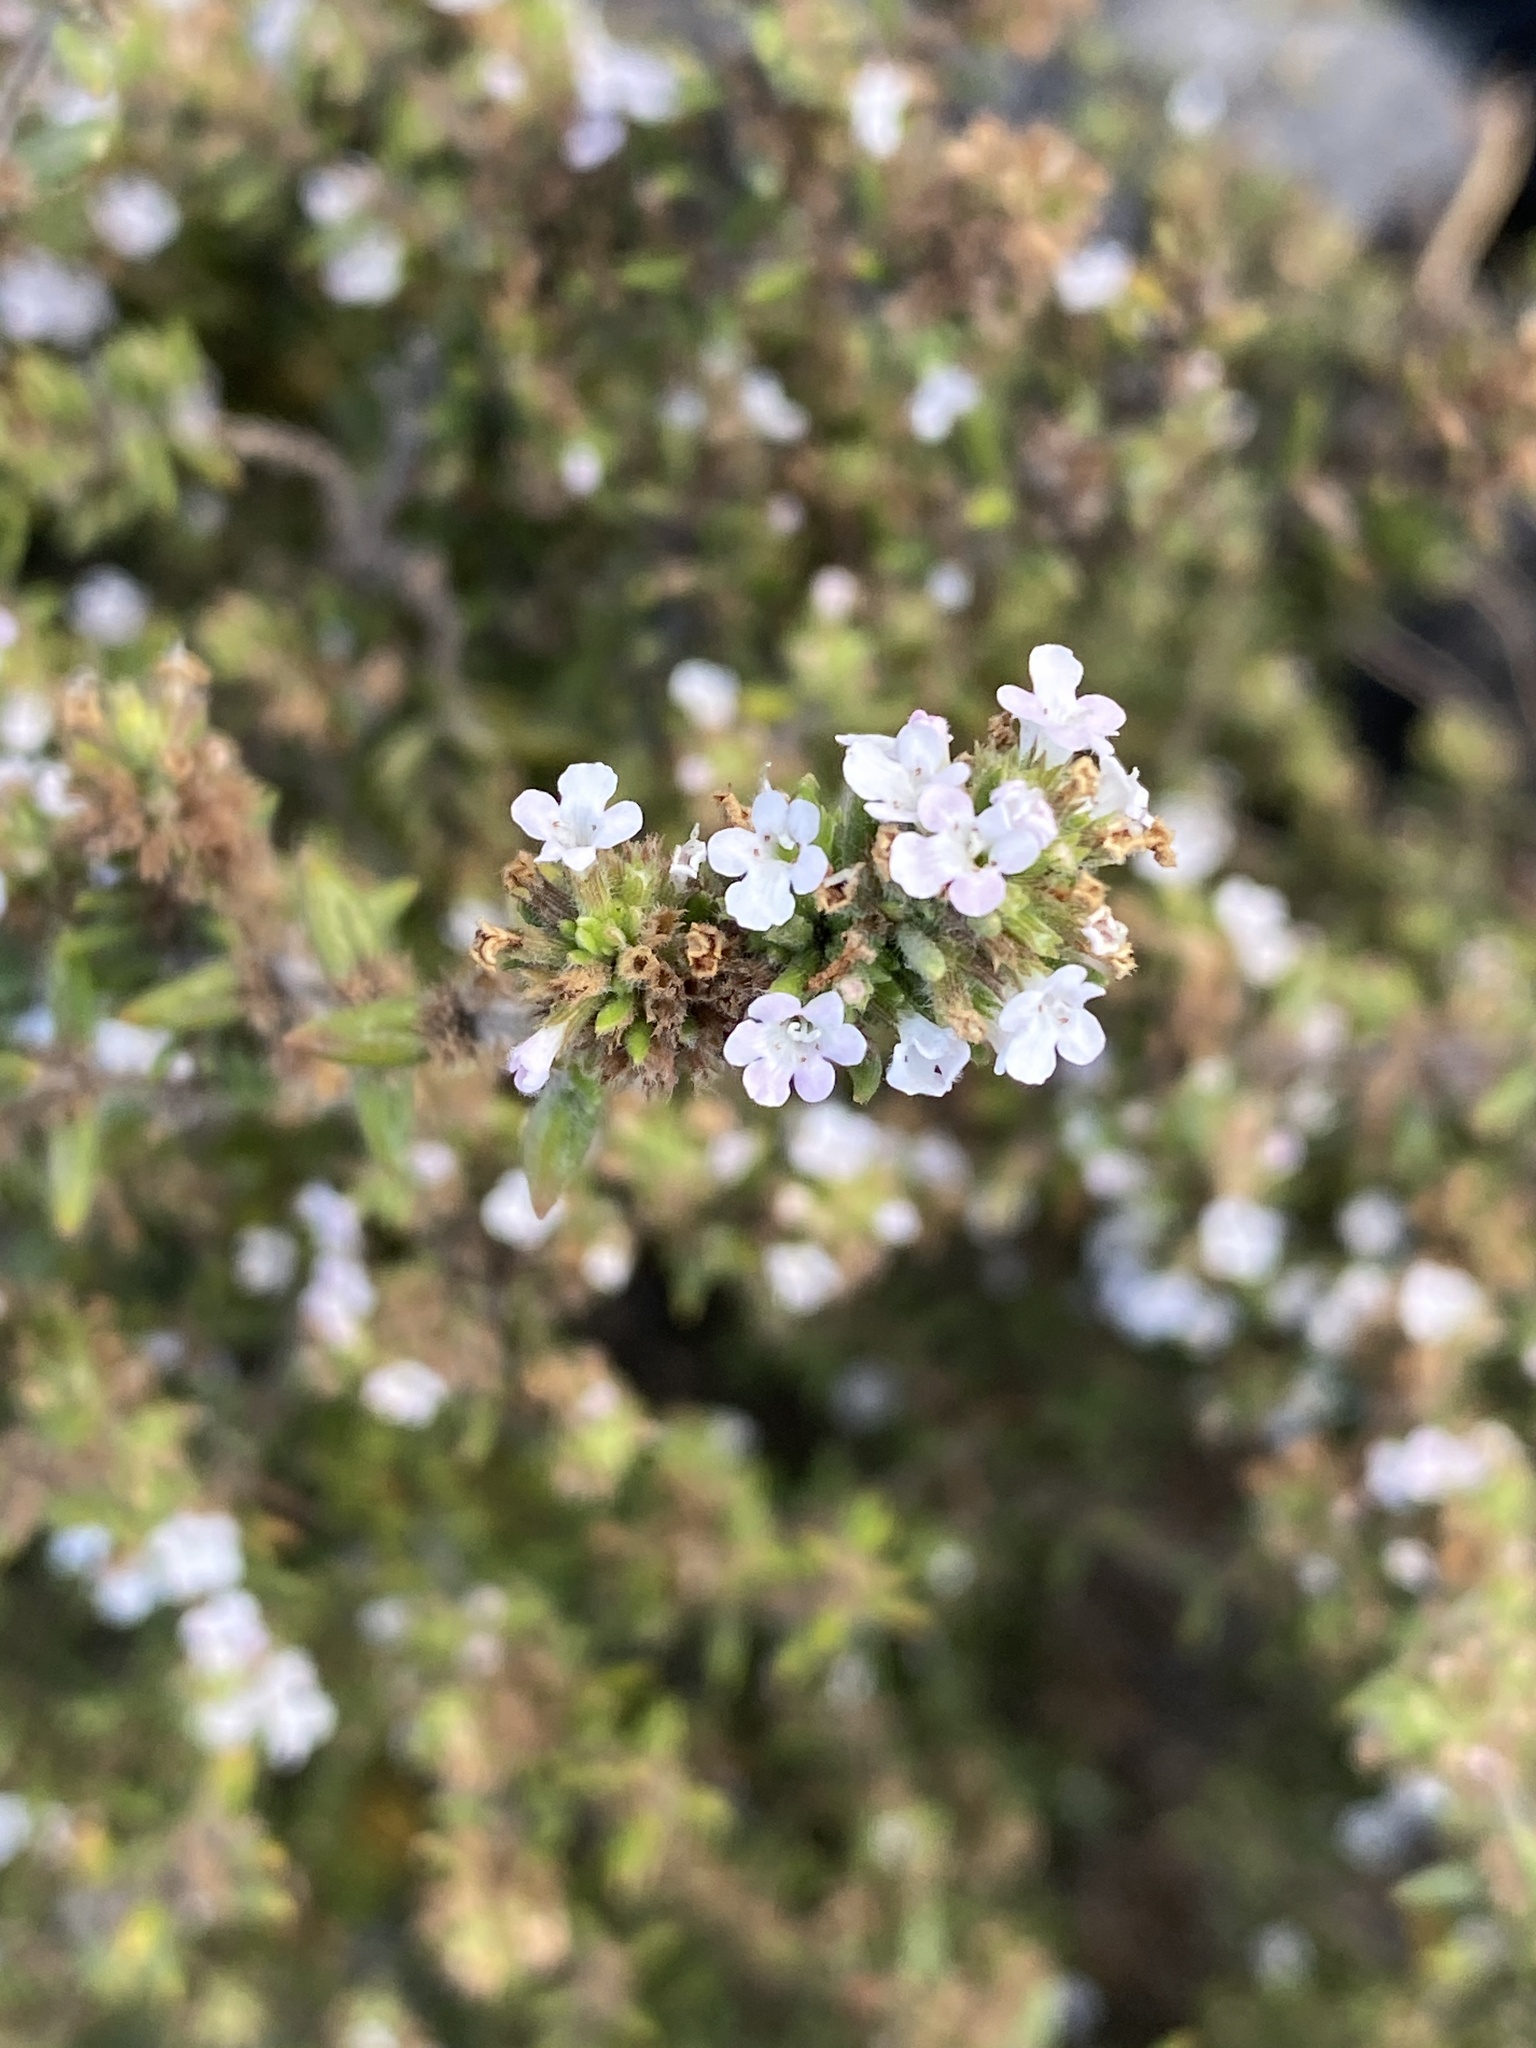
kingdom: Plantae
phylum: Tracheophyta
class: Magnoliopsida
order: Lamiales
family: Lamiaceae
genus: Micromeria
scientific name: Micromeria herpyllomorpha
